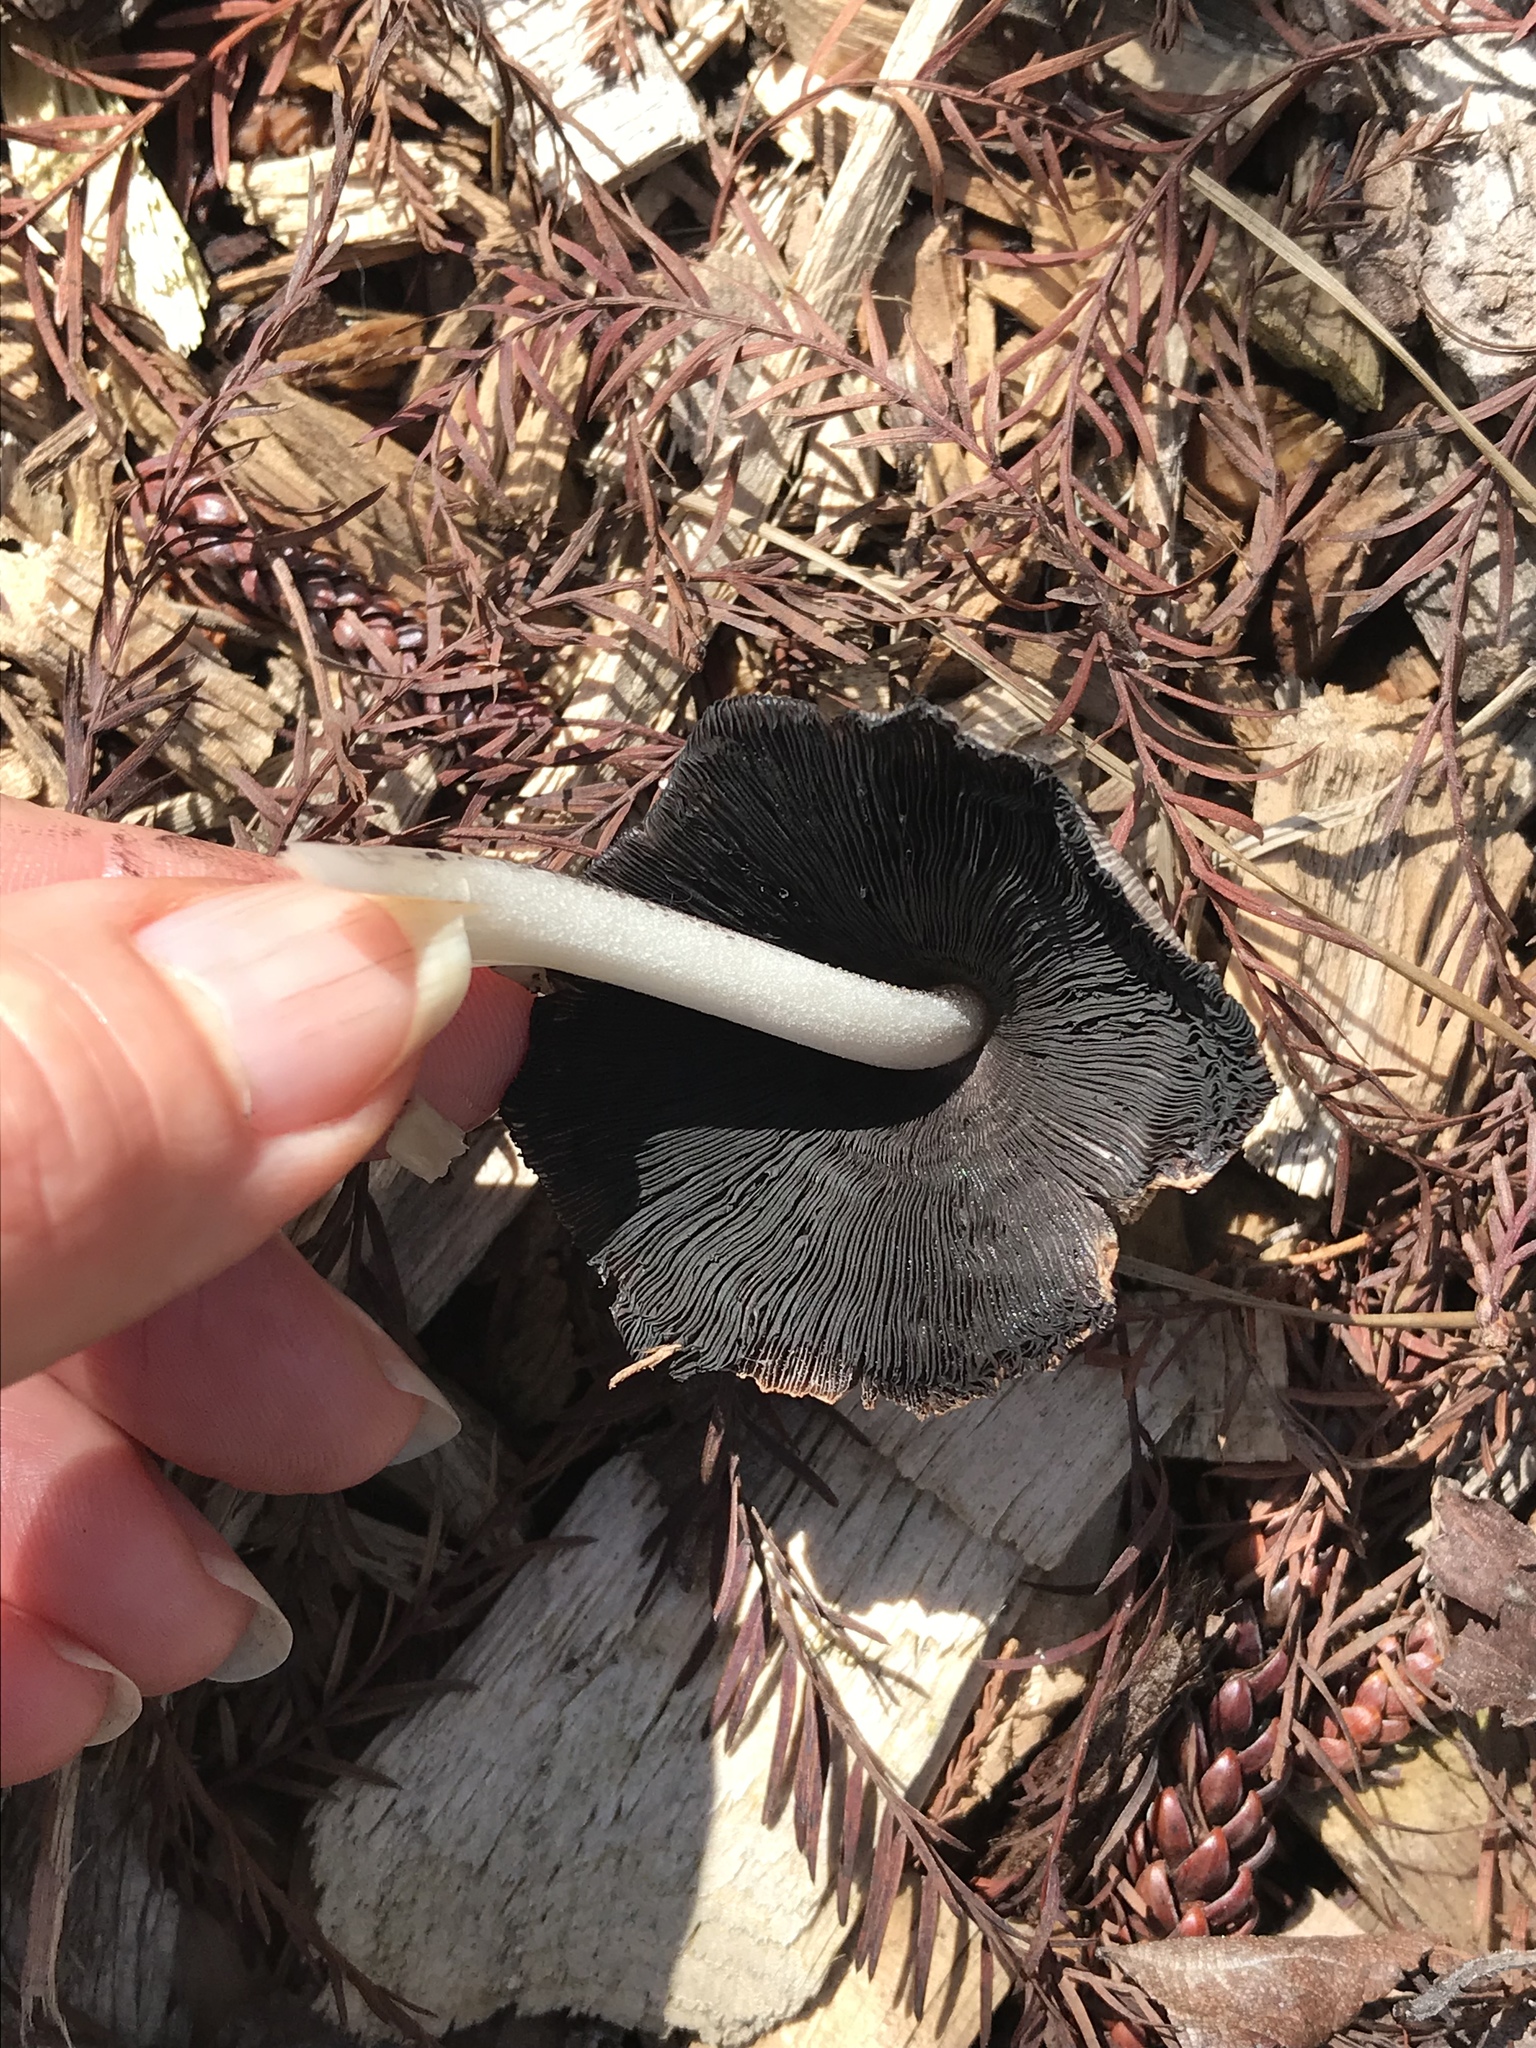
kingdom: Fungi
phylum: Basidiomycota
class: Agaricomycetes
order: Agaricales
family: Psathyrellaceae
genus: Coprinellus
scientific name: Coprinellus micaceus
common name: Glistening ink-cap
